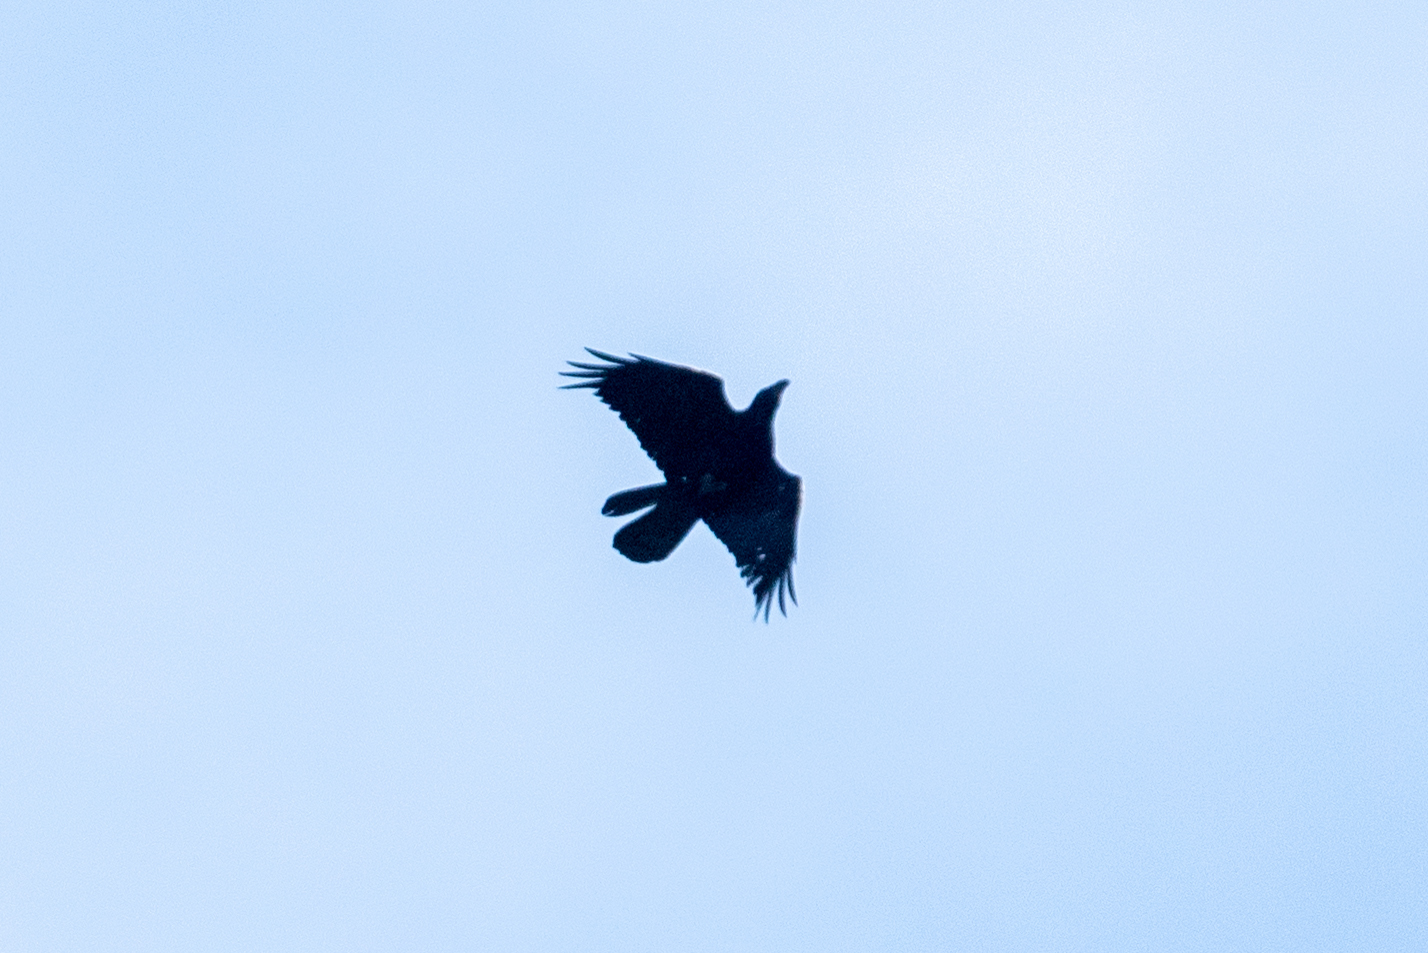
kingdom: Animalia
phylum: Chordata
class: Aves
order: Passeriformes
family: Corvidae
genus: Corvus
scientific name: Corvus corax
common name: Common raven
